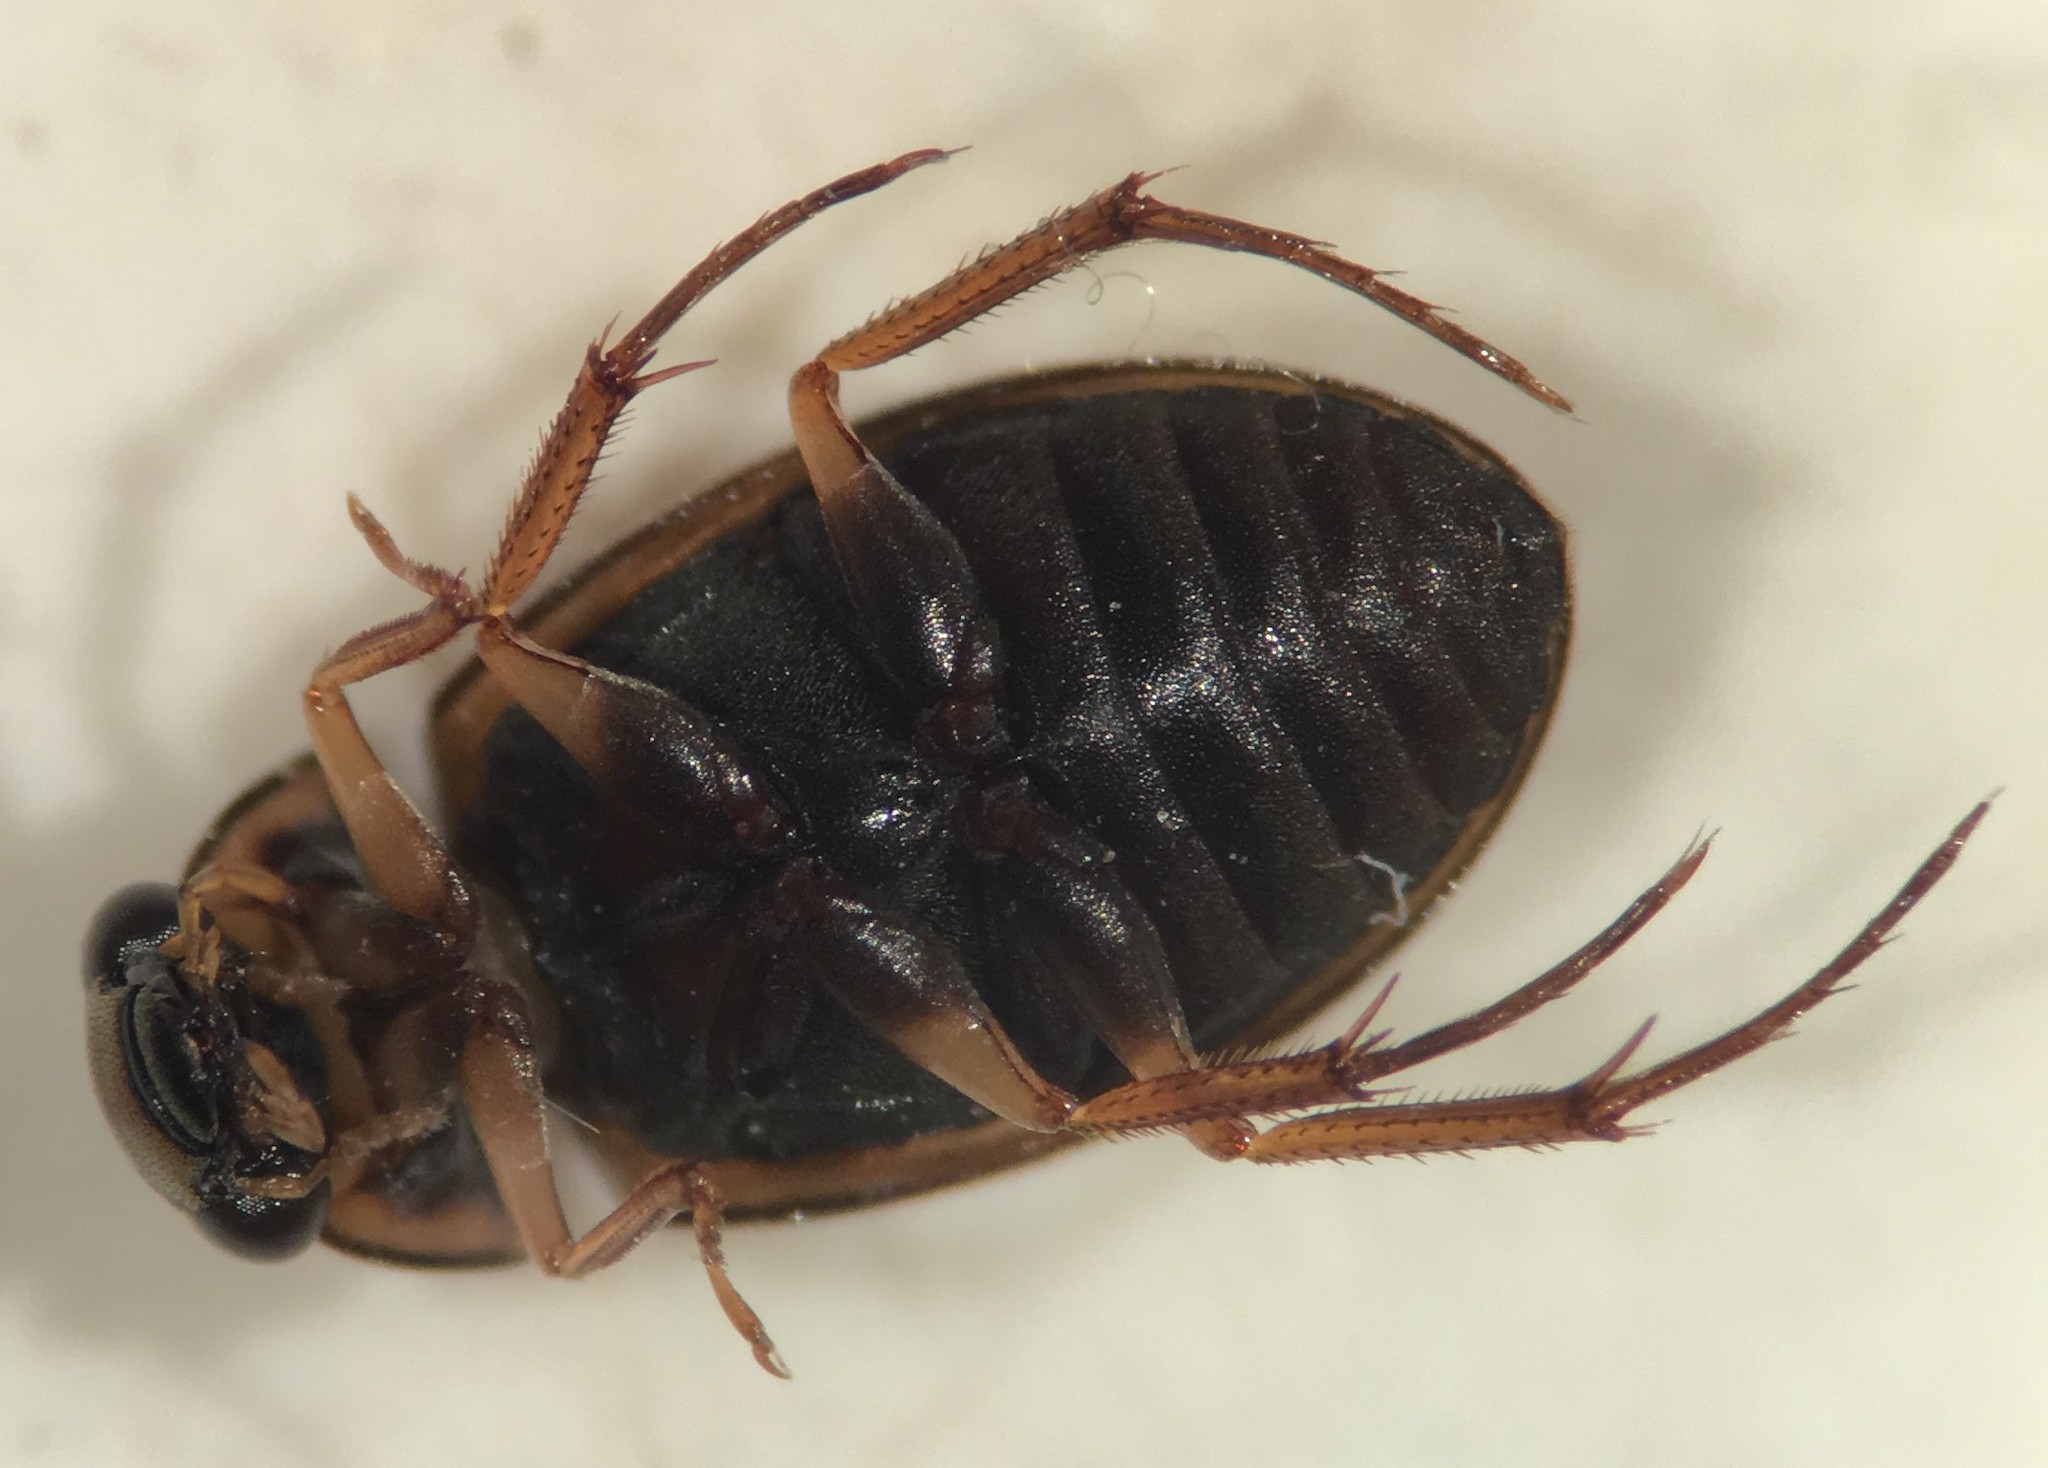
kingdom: Animalia
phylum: Arthropoda
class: Insecta
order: Coleoptera
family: Hydrophilidae
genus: Berosus
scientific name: Berosus sayi
